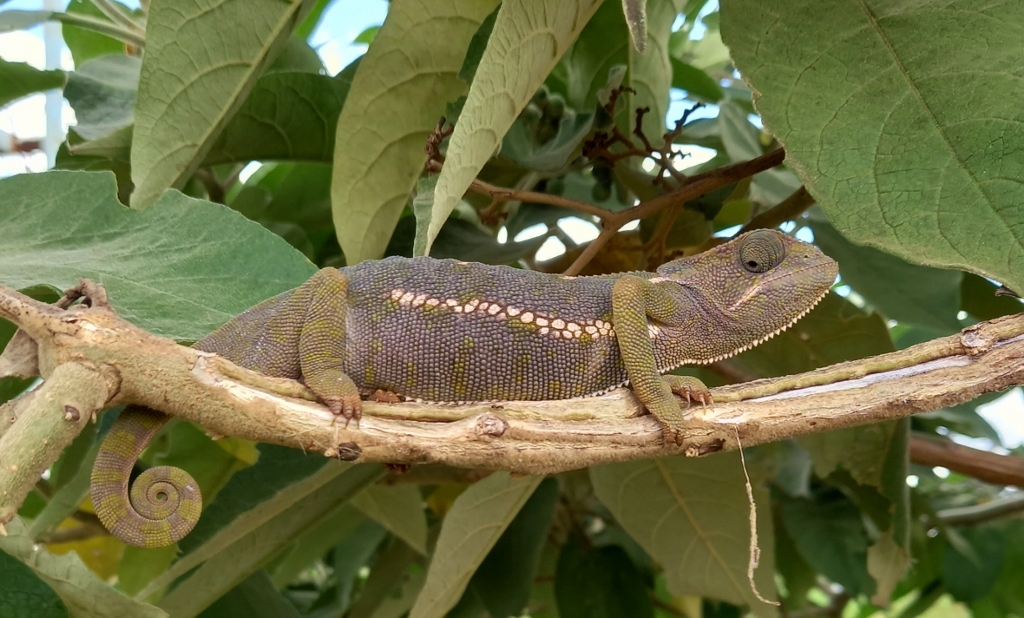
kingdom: Animalia
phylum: Chordata
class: Squamata
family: Chamaeleonidae
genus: Chamaeleo
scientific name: Chamaeleo dilepis
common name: Flapneck chameleon
